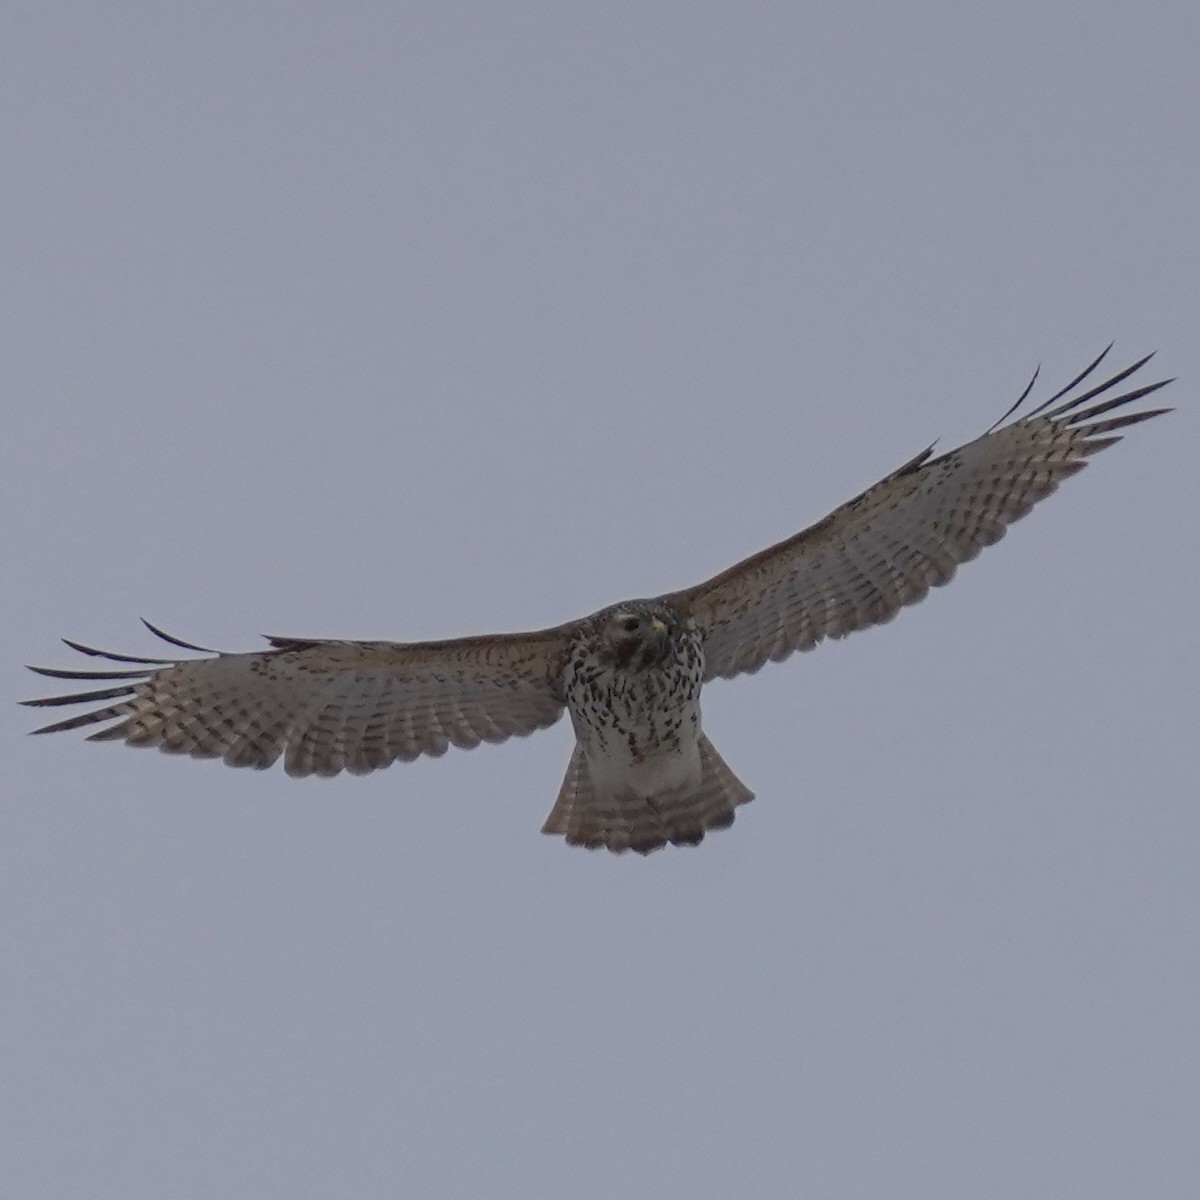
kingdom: Animalia
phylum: Chordata
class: Aves
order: Accipitriformes
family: Accipitridae
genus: Buteo
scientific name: Buteo lineatus
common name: Red-shouldered hawk
